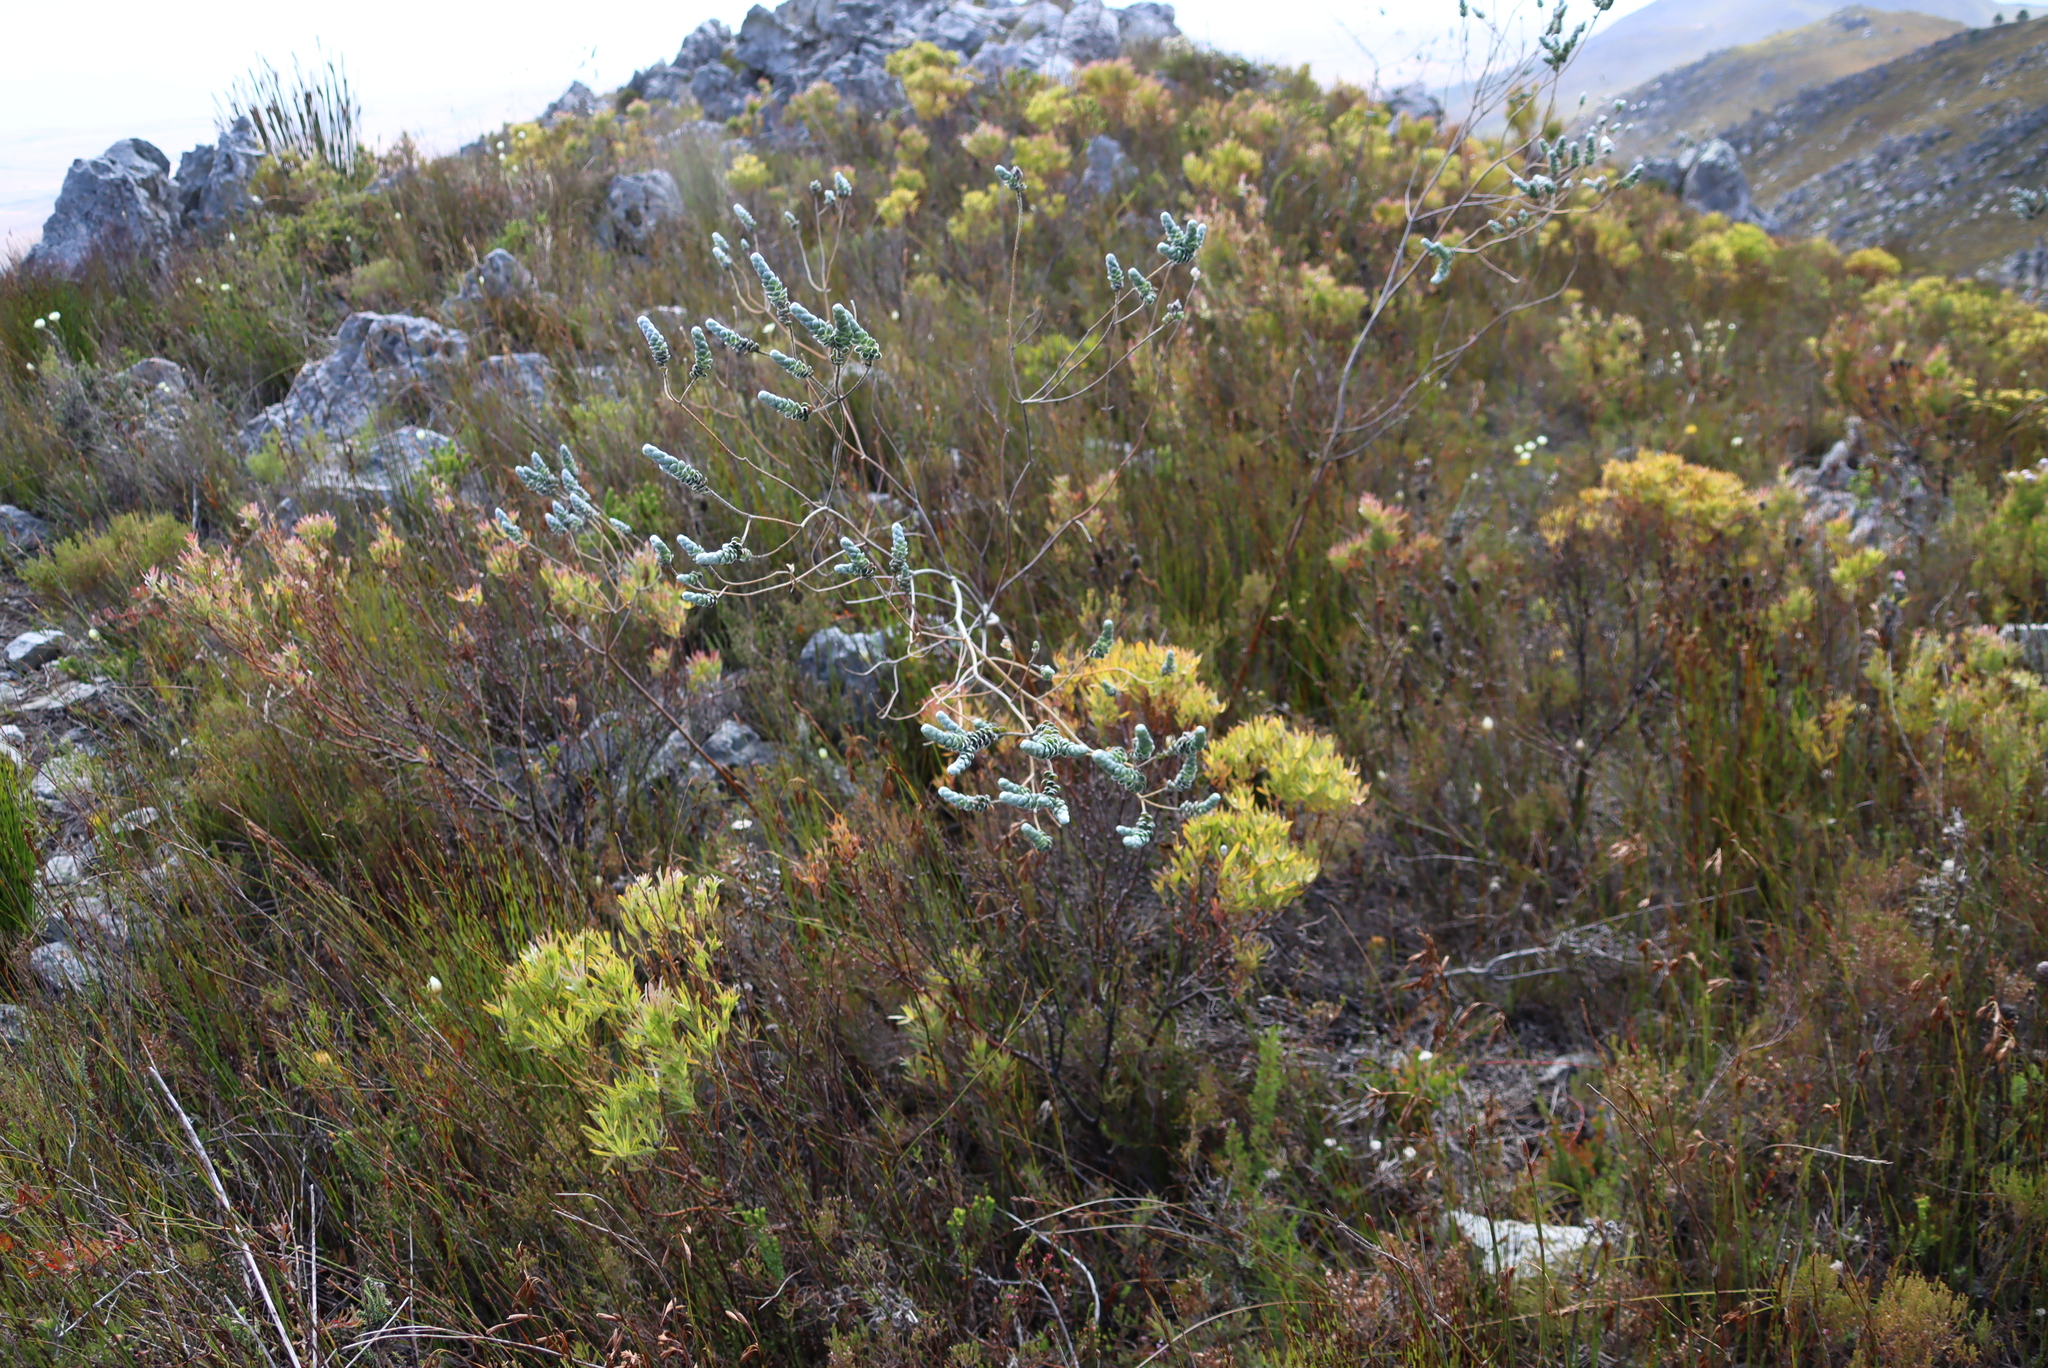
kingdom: Plantae
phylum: Tracheophyta
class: Magnoliopsida
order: Fabales
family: Fabaceae
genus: Liparia
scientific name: Liparia vestita
